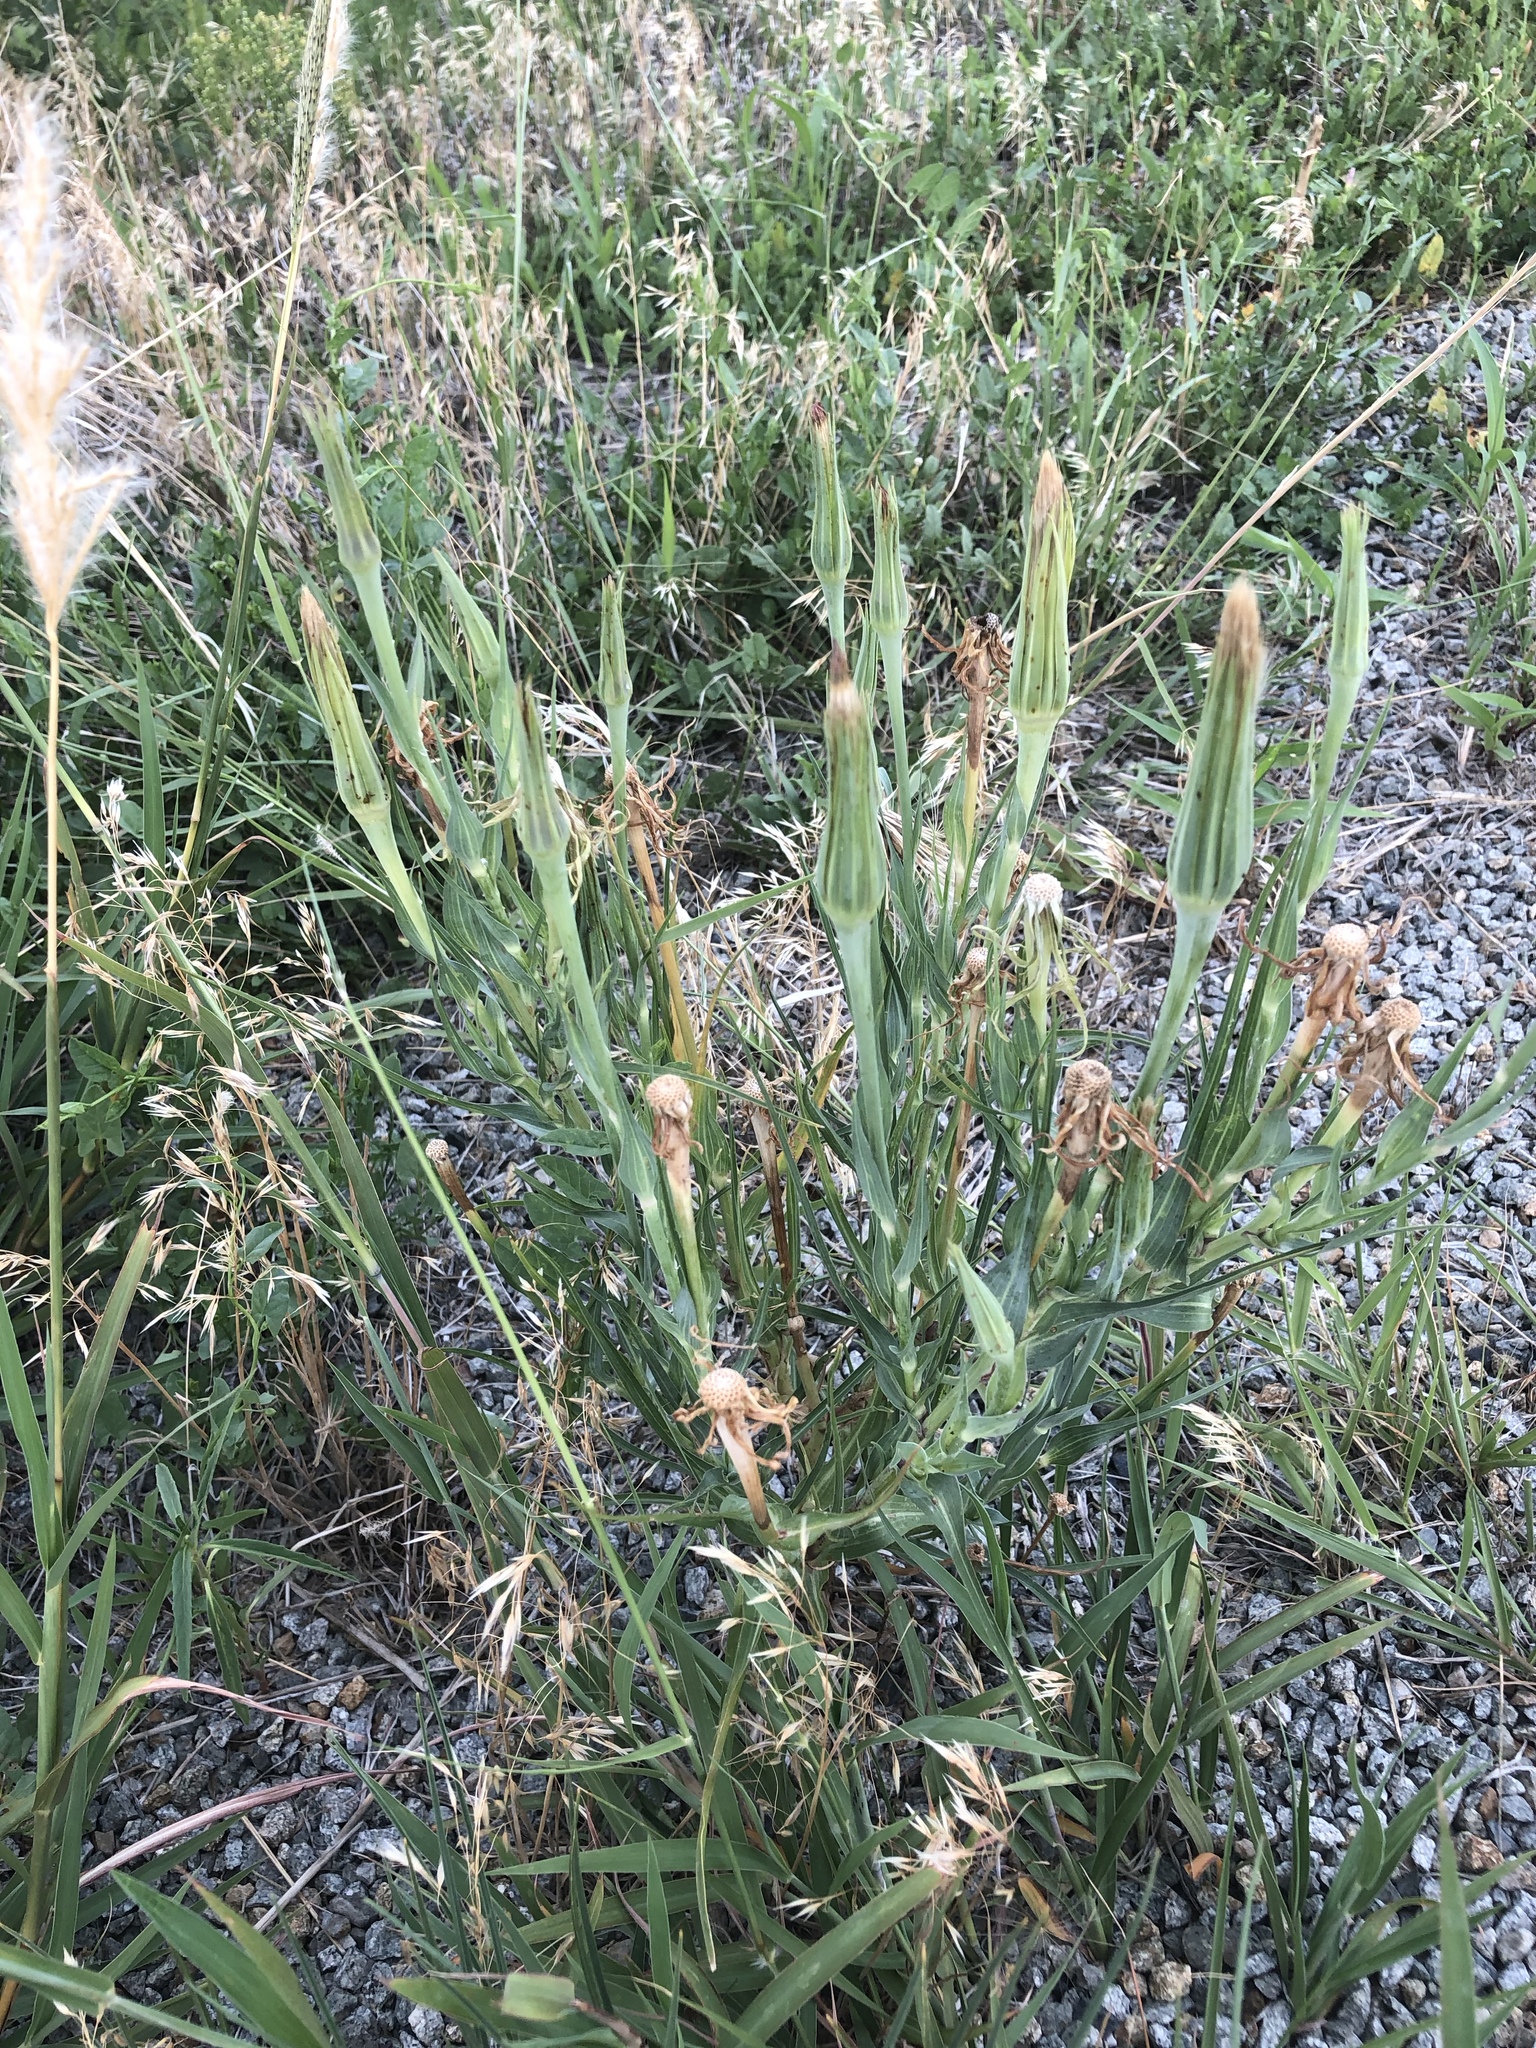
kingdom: Plantae
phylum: Tracheophyta
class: Magnoliopsida
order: Asterales
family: Asteraceae
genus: Tragopogon
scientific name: Tragopogon dubius
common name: Yellow salsify
